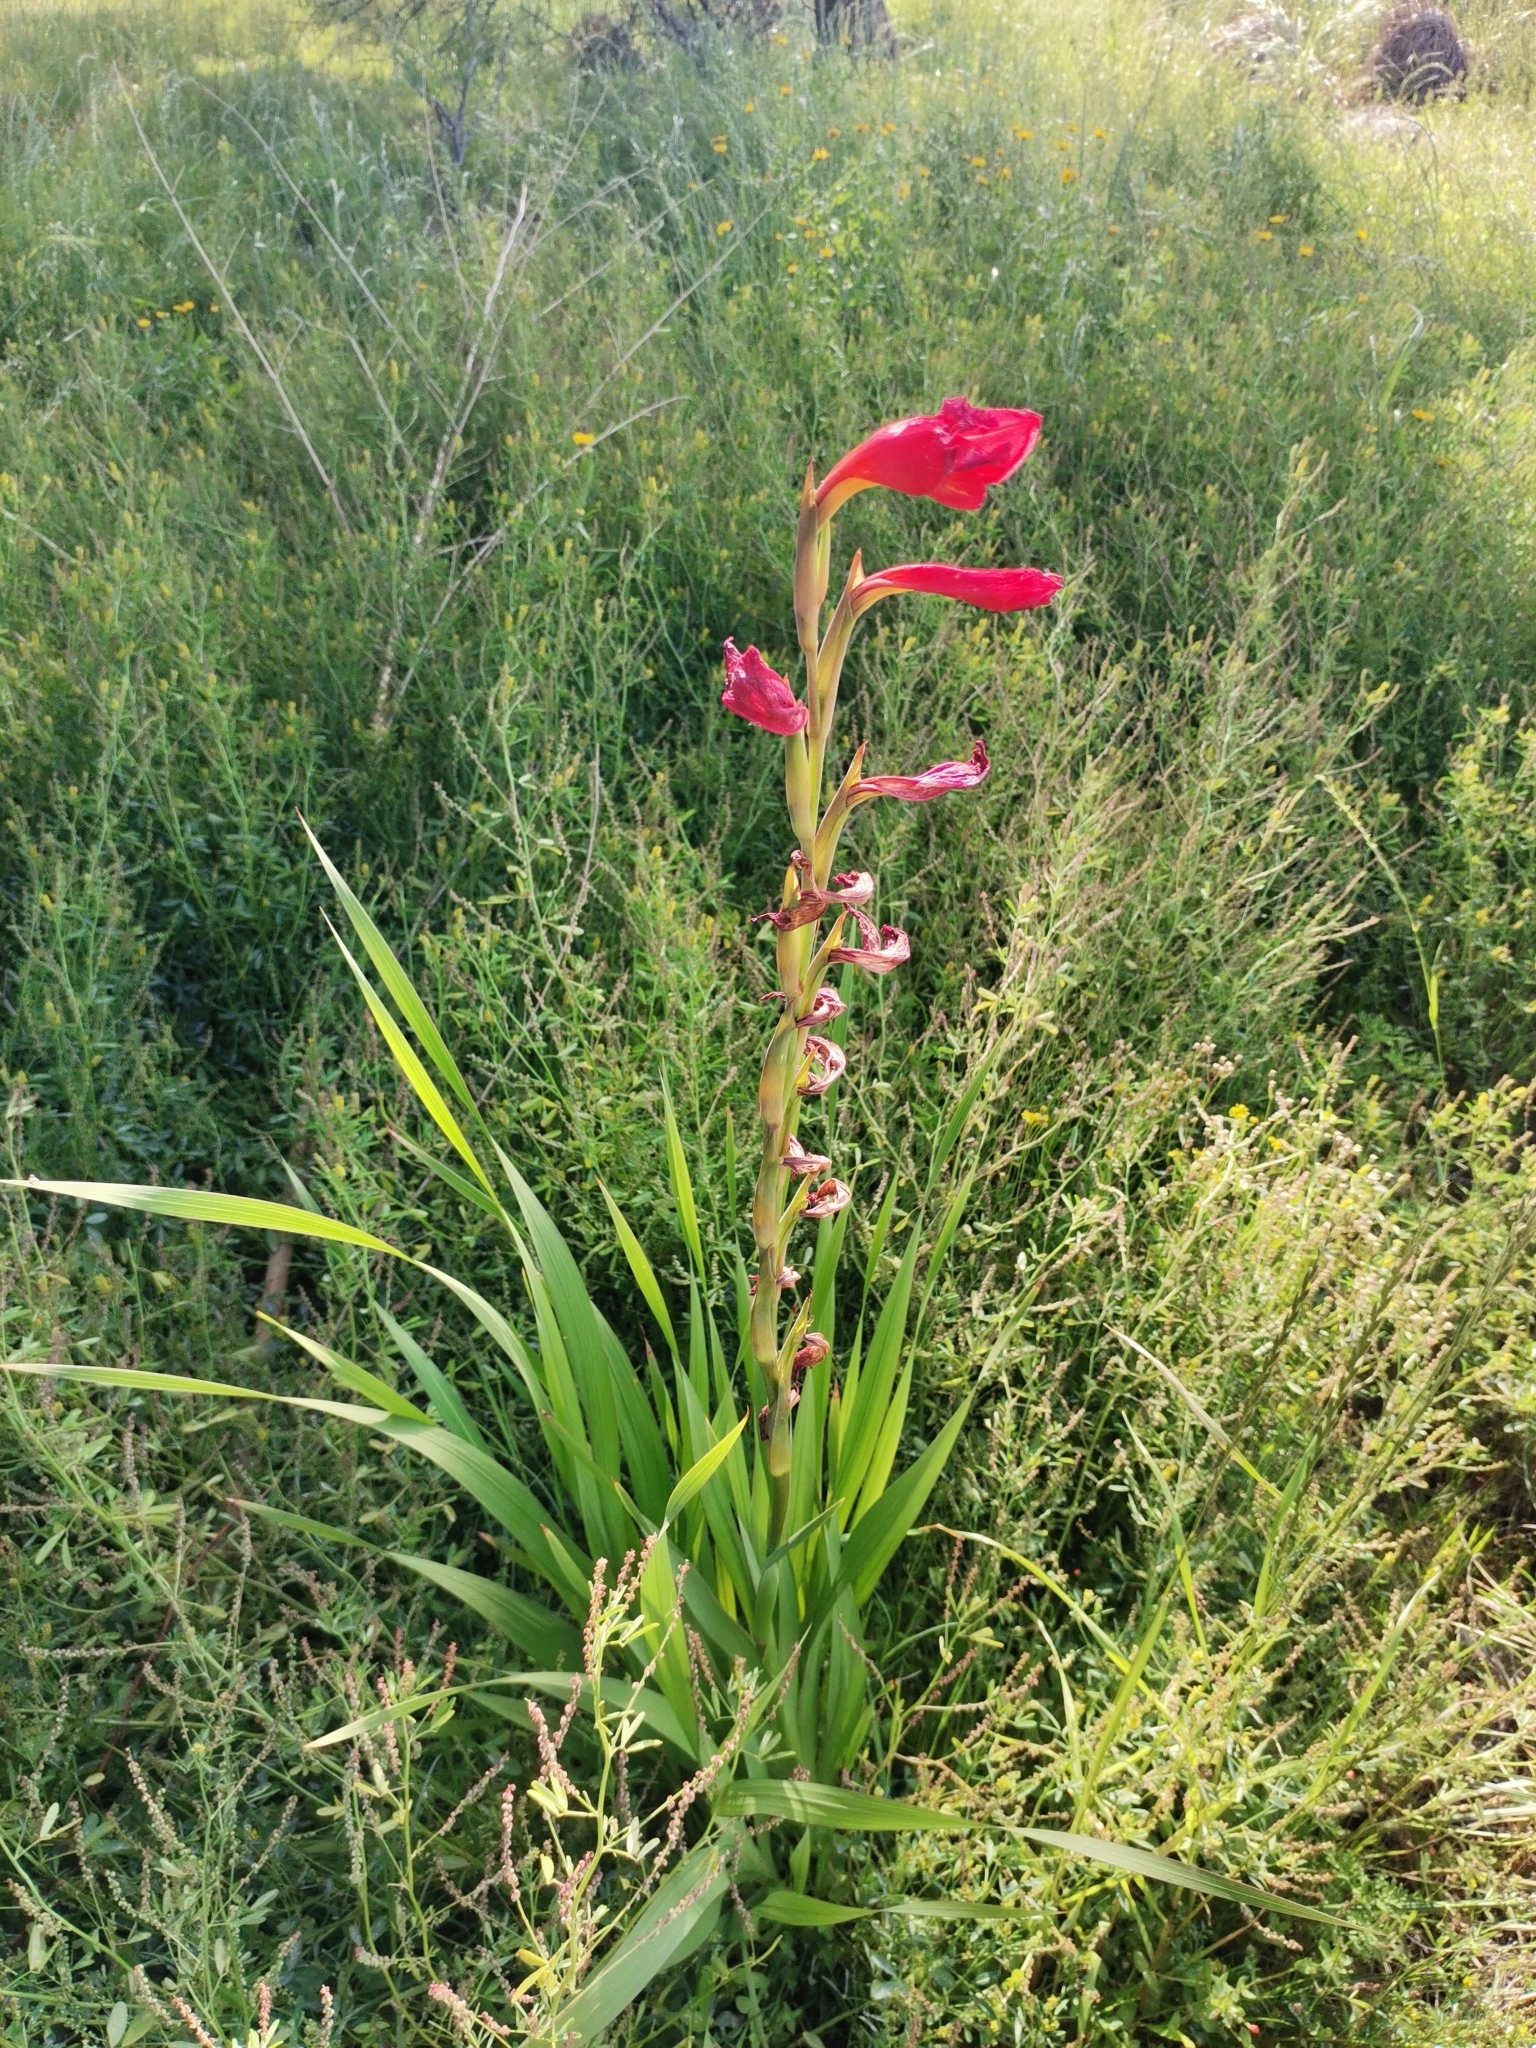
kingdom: Plantae
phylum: Tracheophyta
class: Liliopsida
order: Asparagales
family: Iridaceae
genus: Gladiolus
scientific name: Gladiolus dalenii
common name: Cornflag
